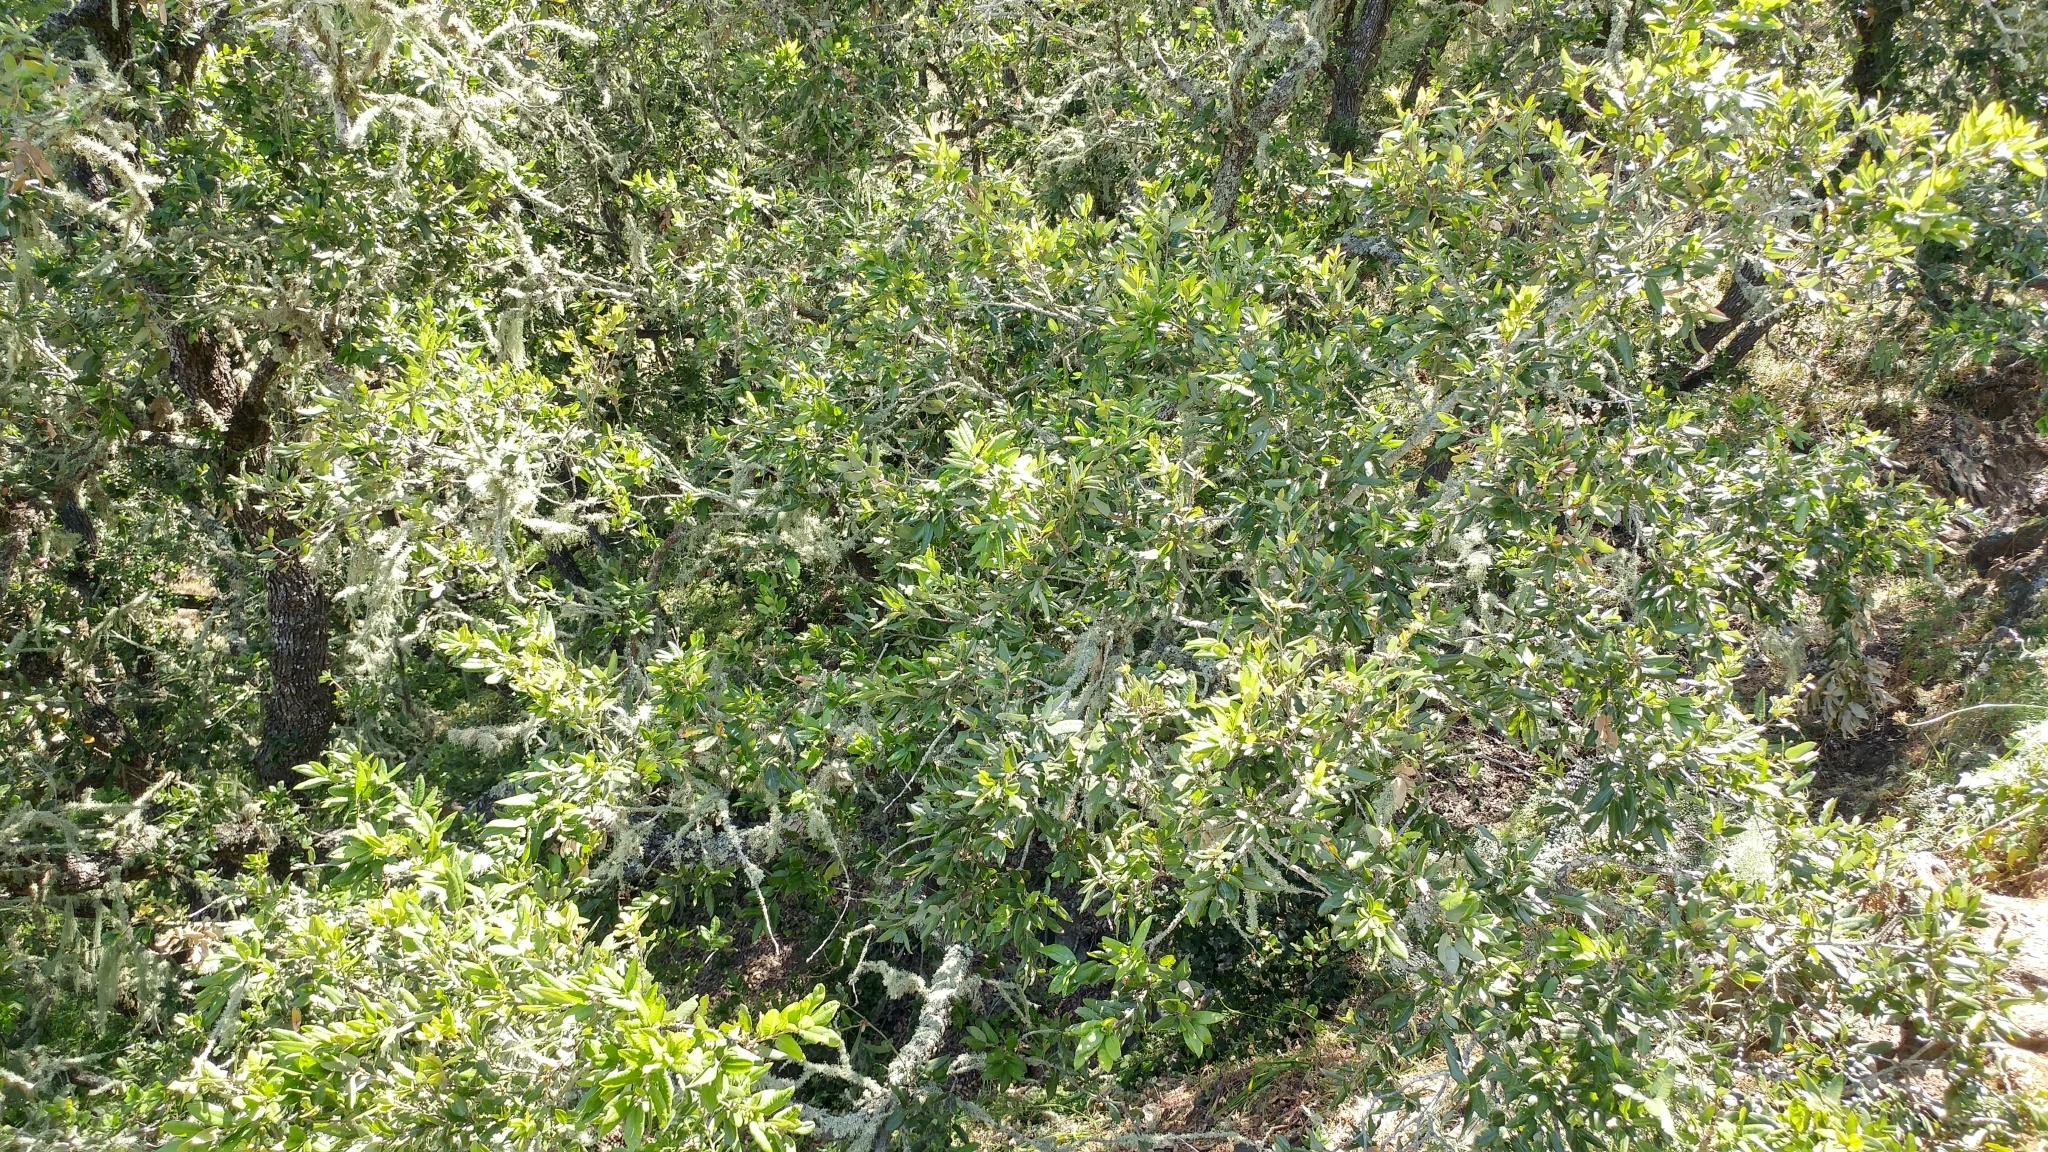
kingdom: Plantae
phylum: Tracheophyta
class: Magnoliopsida
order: Fagales
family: Fagaceae
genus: Quercus
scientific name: Quercus tomentella
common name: Island oak
